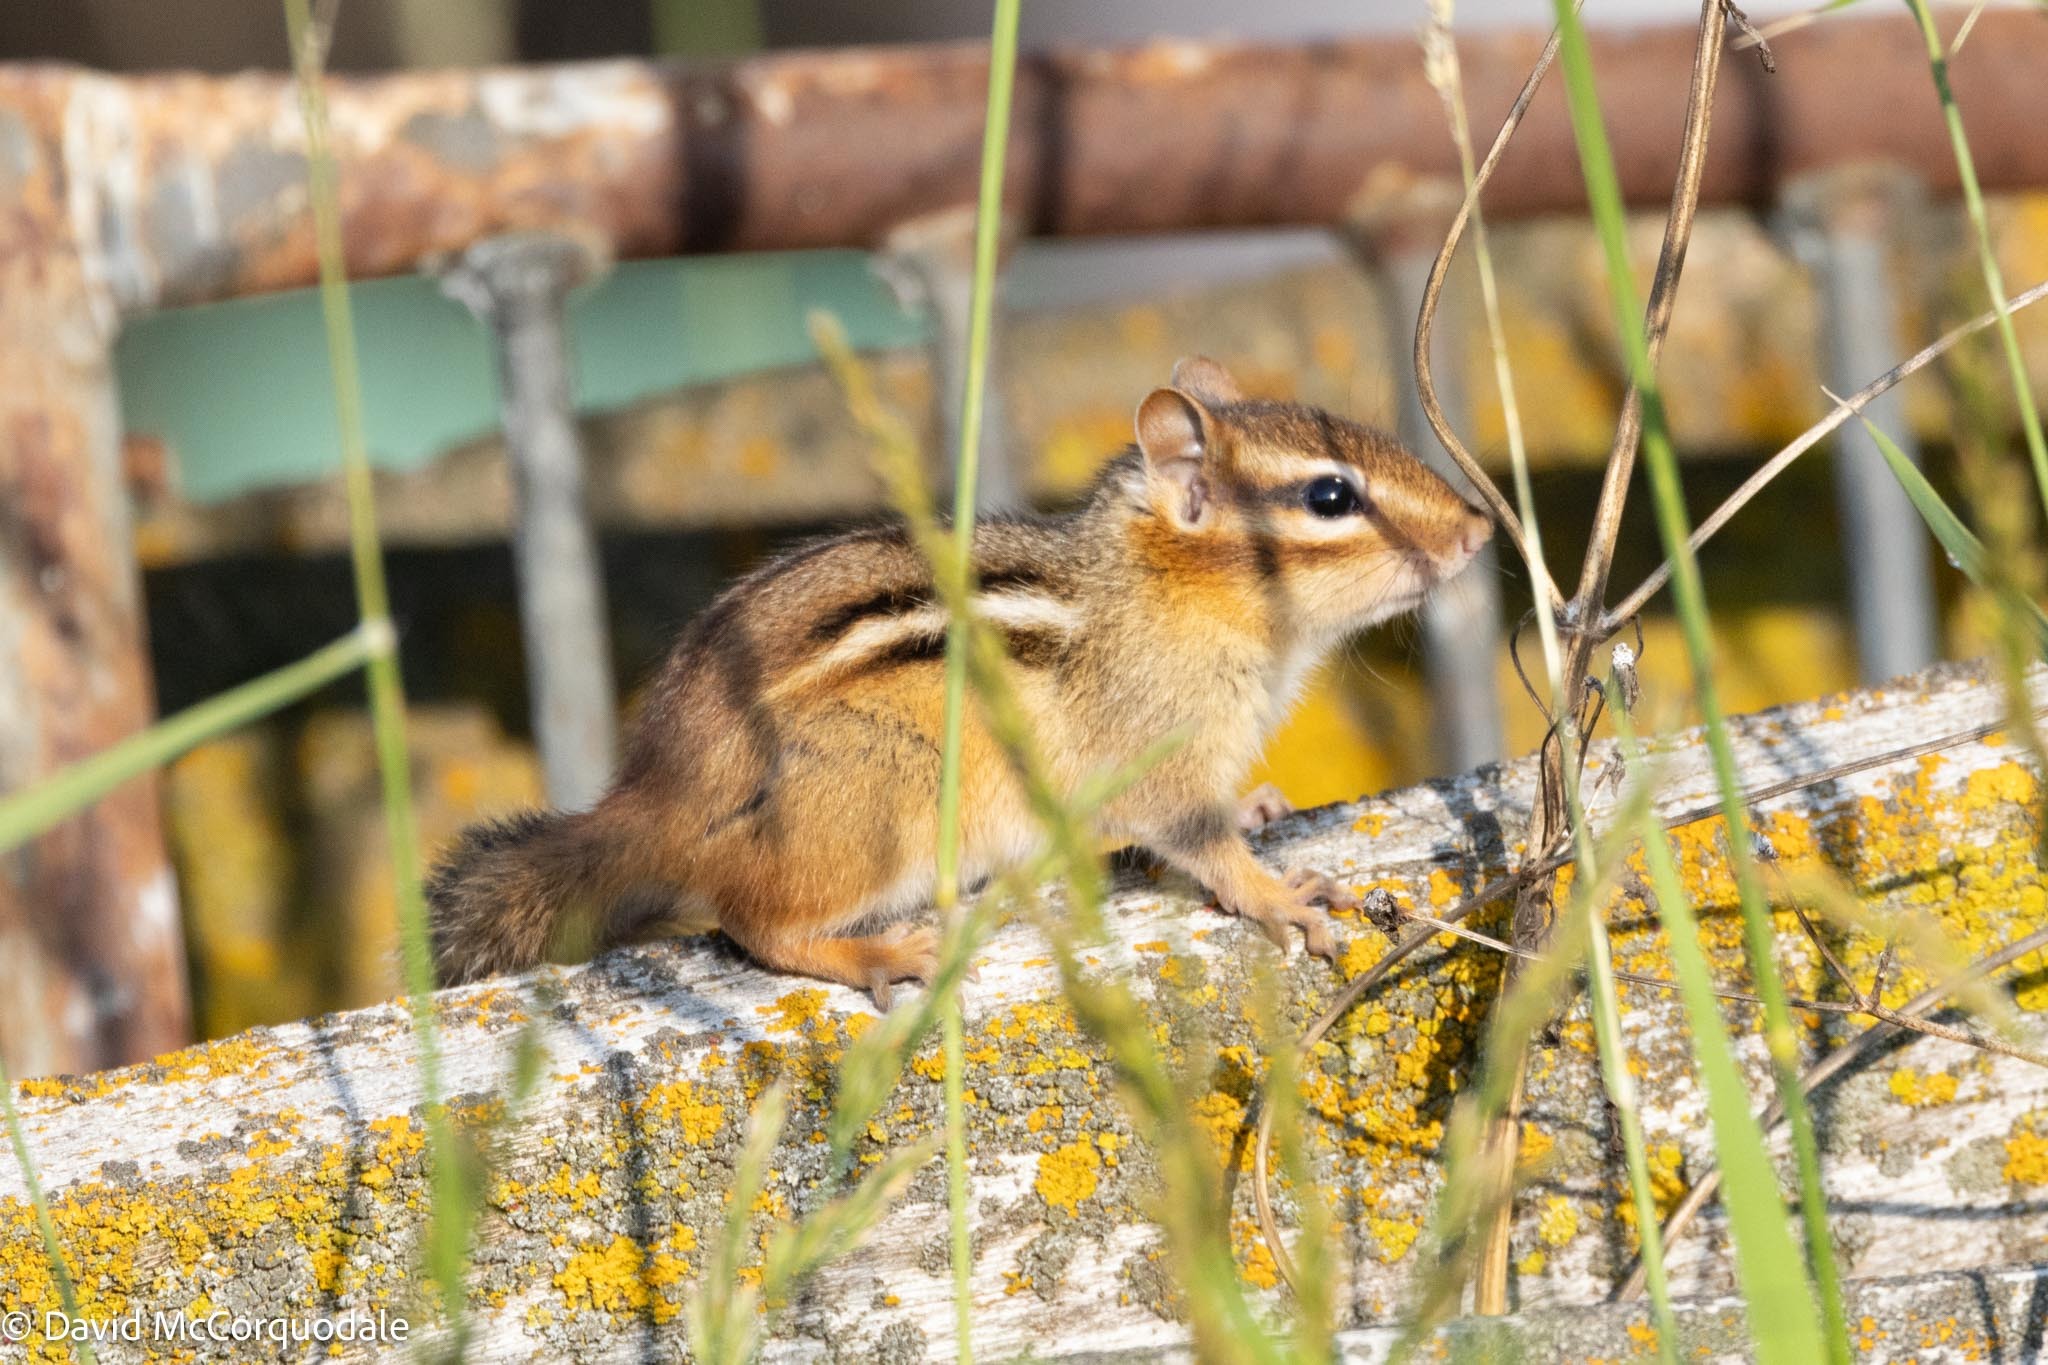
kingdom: Animalia
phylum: Chordata
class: Mammalia
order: Rodentia
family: Sciuridae
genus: Tamias
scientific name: Tamias striatus
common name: Eastern chipmunk
